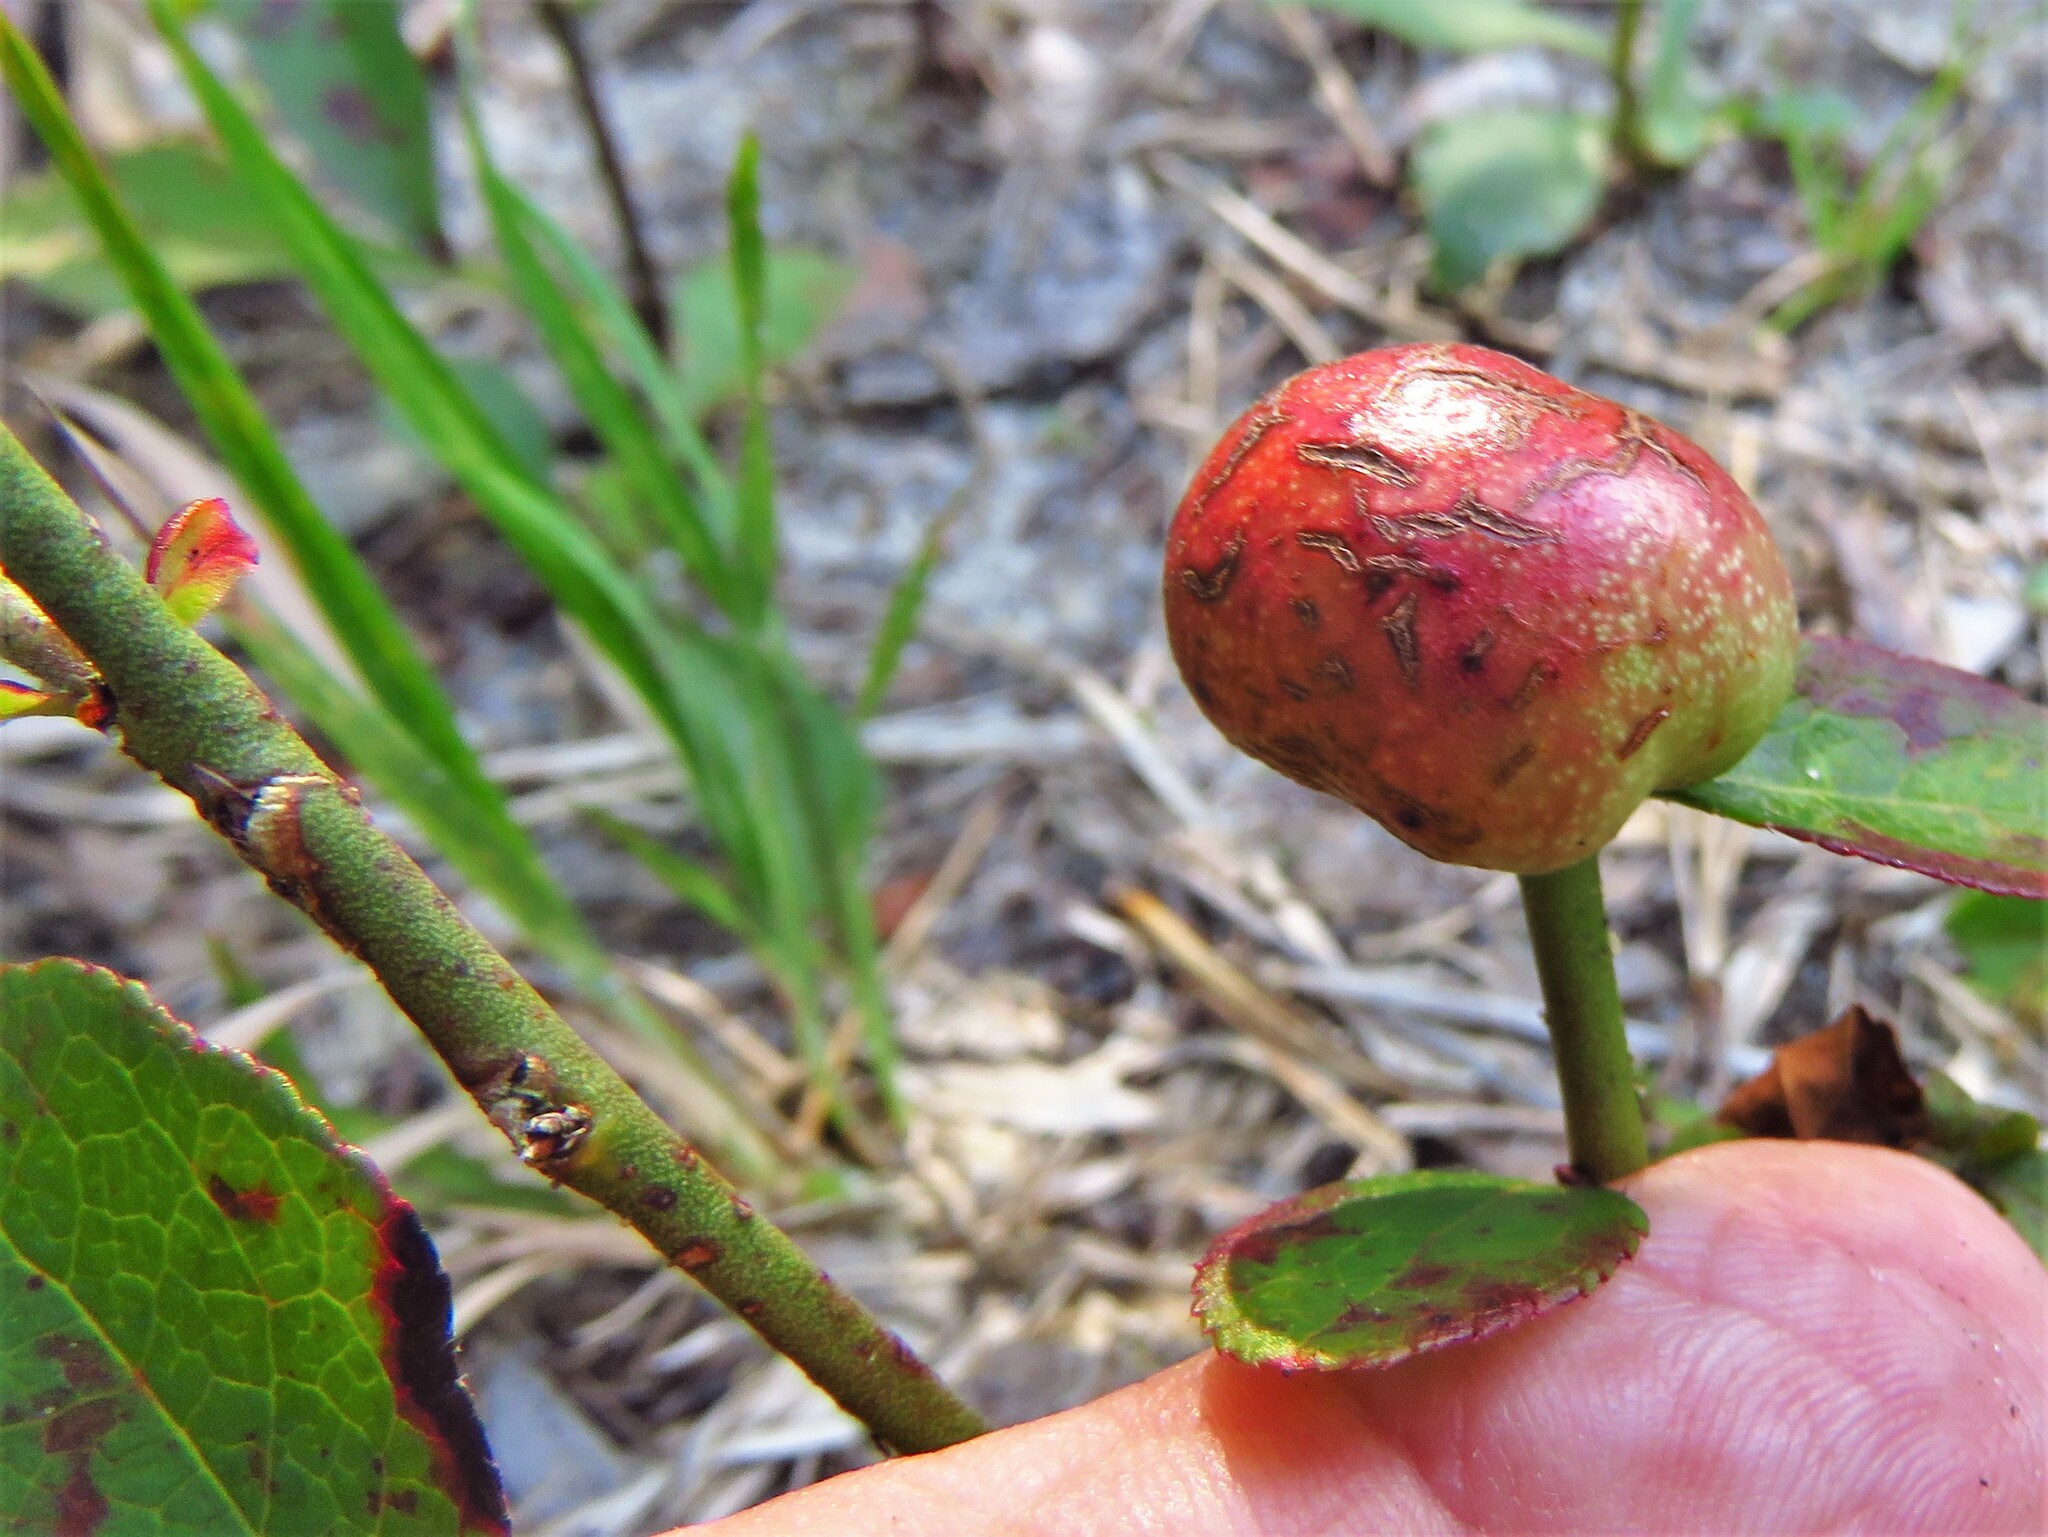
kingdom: Animalia
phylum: Arthropoda
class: Insecta
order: Hymenoptera
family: Pteromalidae
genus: Hemadas
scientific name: Hemadas nubilipennis
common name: Blueberry stem gall wasp
